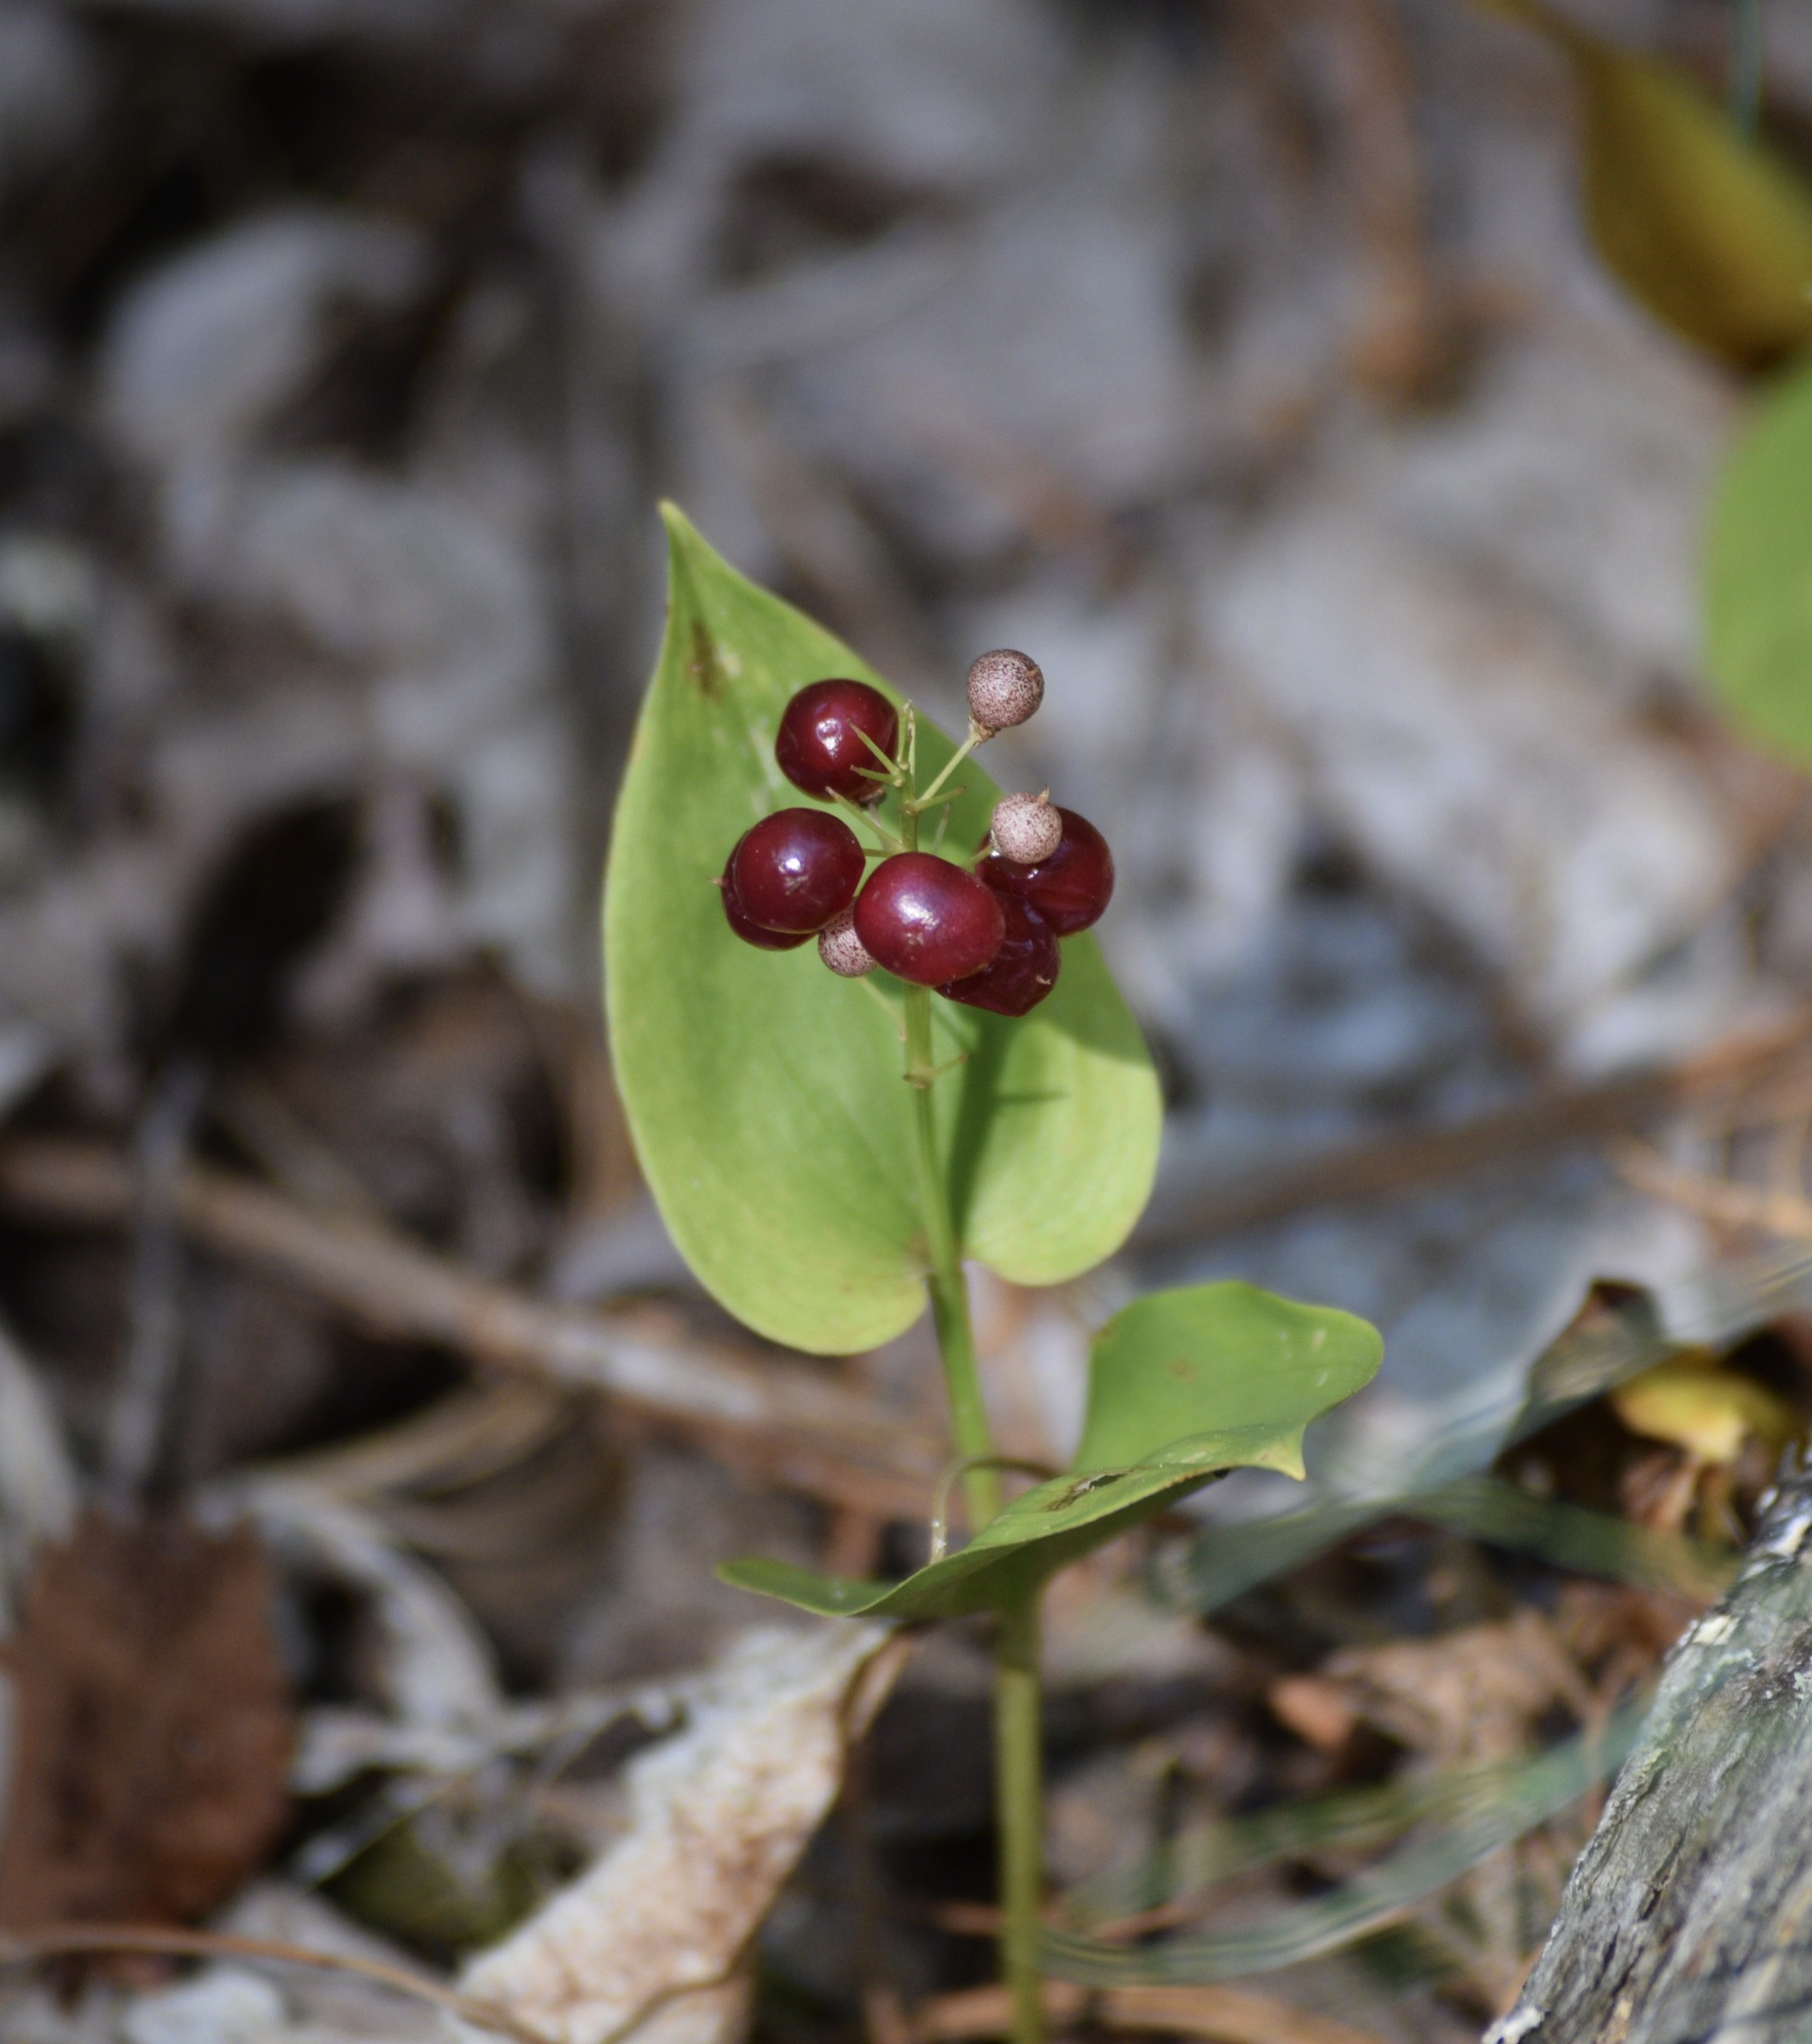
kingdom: Plantae
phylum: Tracheophyta
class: Liliopsida
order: Asparagales
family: Asparagaceae
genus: Maianthemum
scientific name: Maianthemum canadense
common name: False lily-of-the-valley
